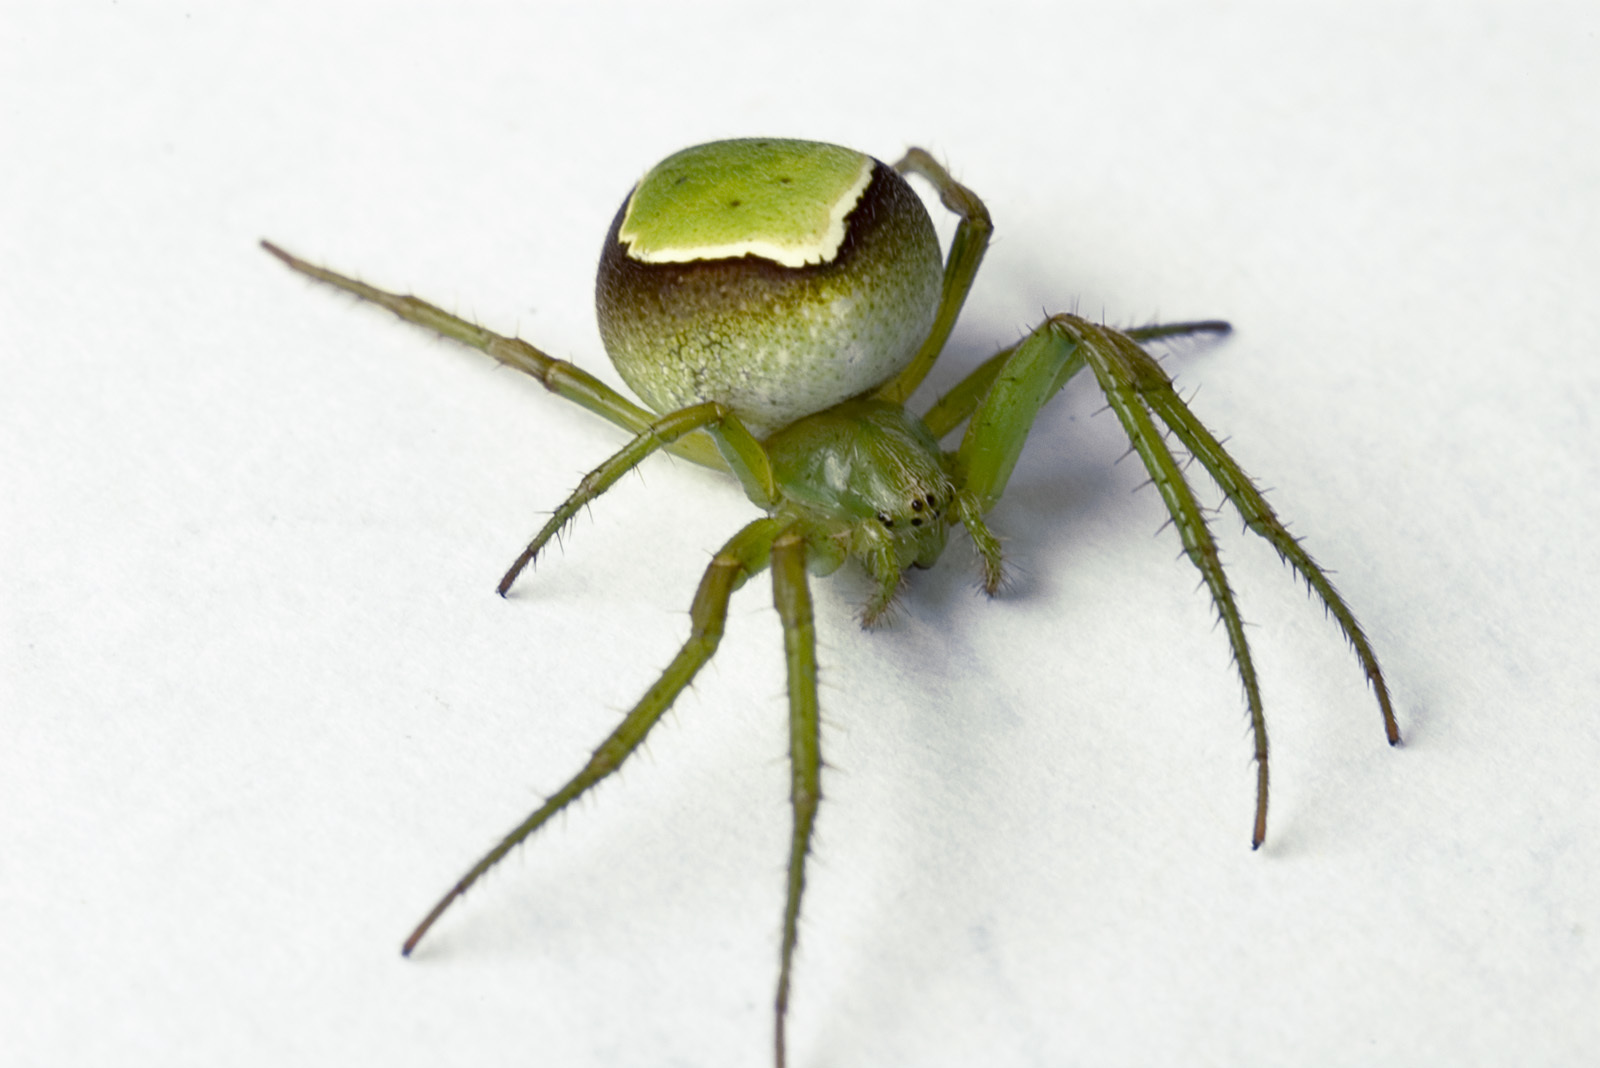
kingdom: Animalia
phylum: Arthropoda
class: Arachnida
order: Araneae
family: Araneidae
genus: Colaranea
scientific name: Colaranea viriditas
